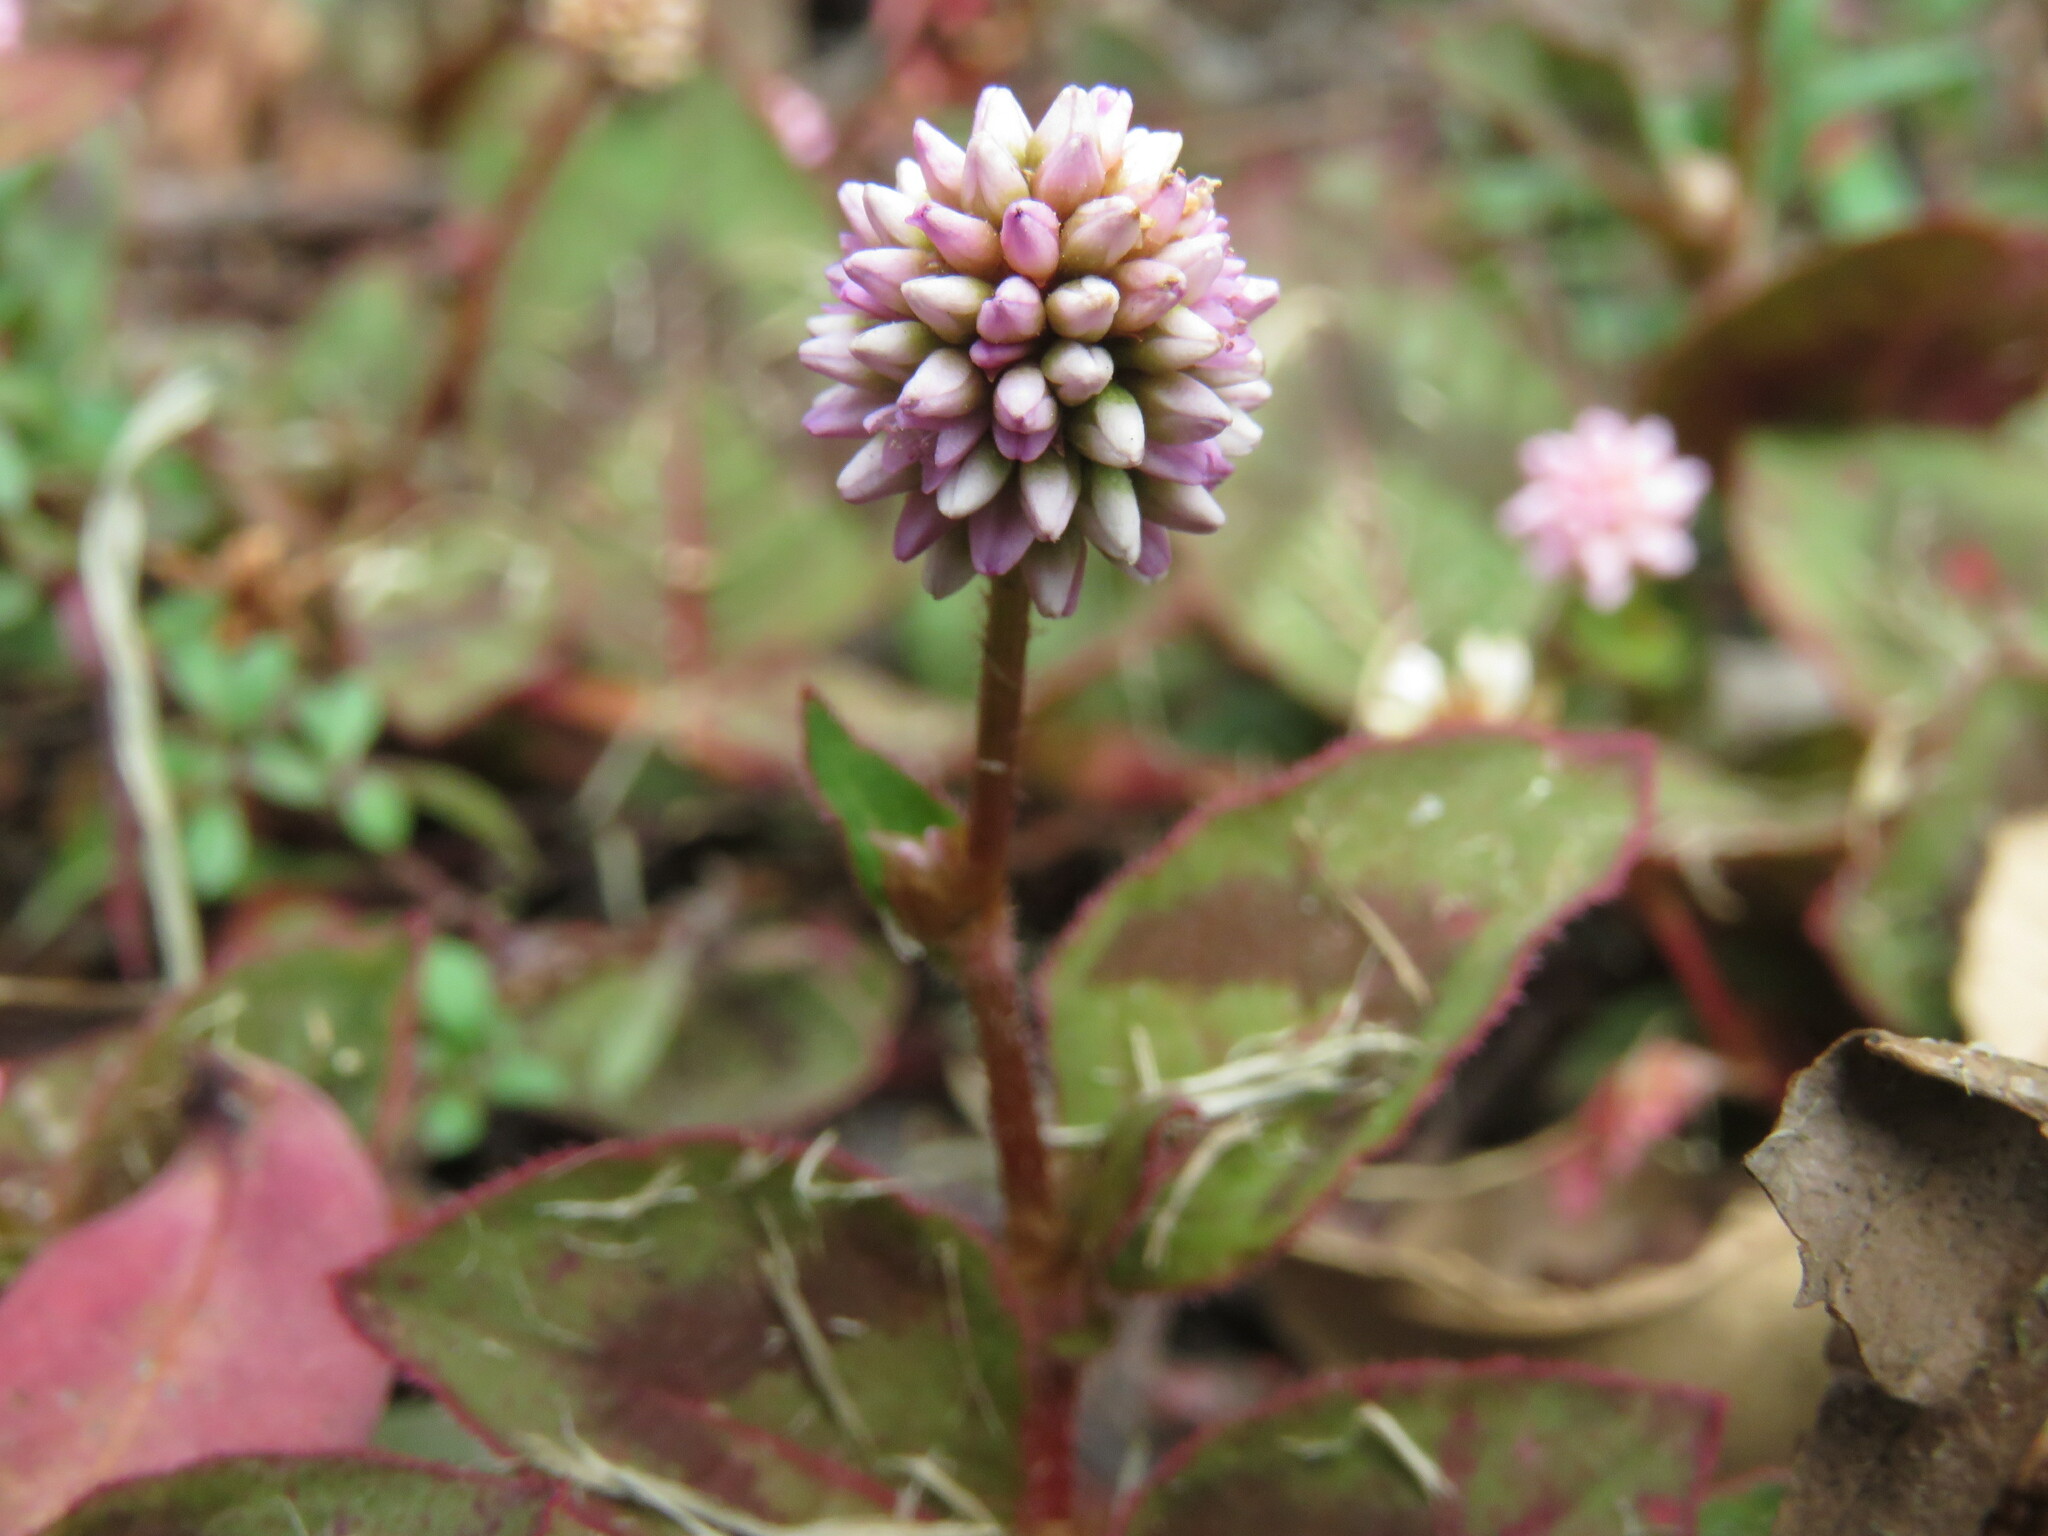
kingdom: Plantae
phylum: Tracheophyta
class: Magnoliopsida
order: Caryophyllales
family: Polygonaceae
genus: Persicaria
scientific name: Persicaria capitata
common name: Pinkhead smartweed
